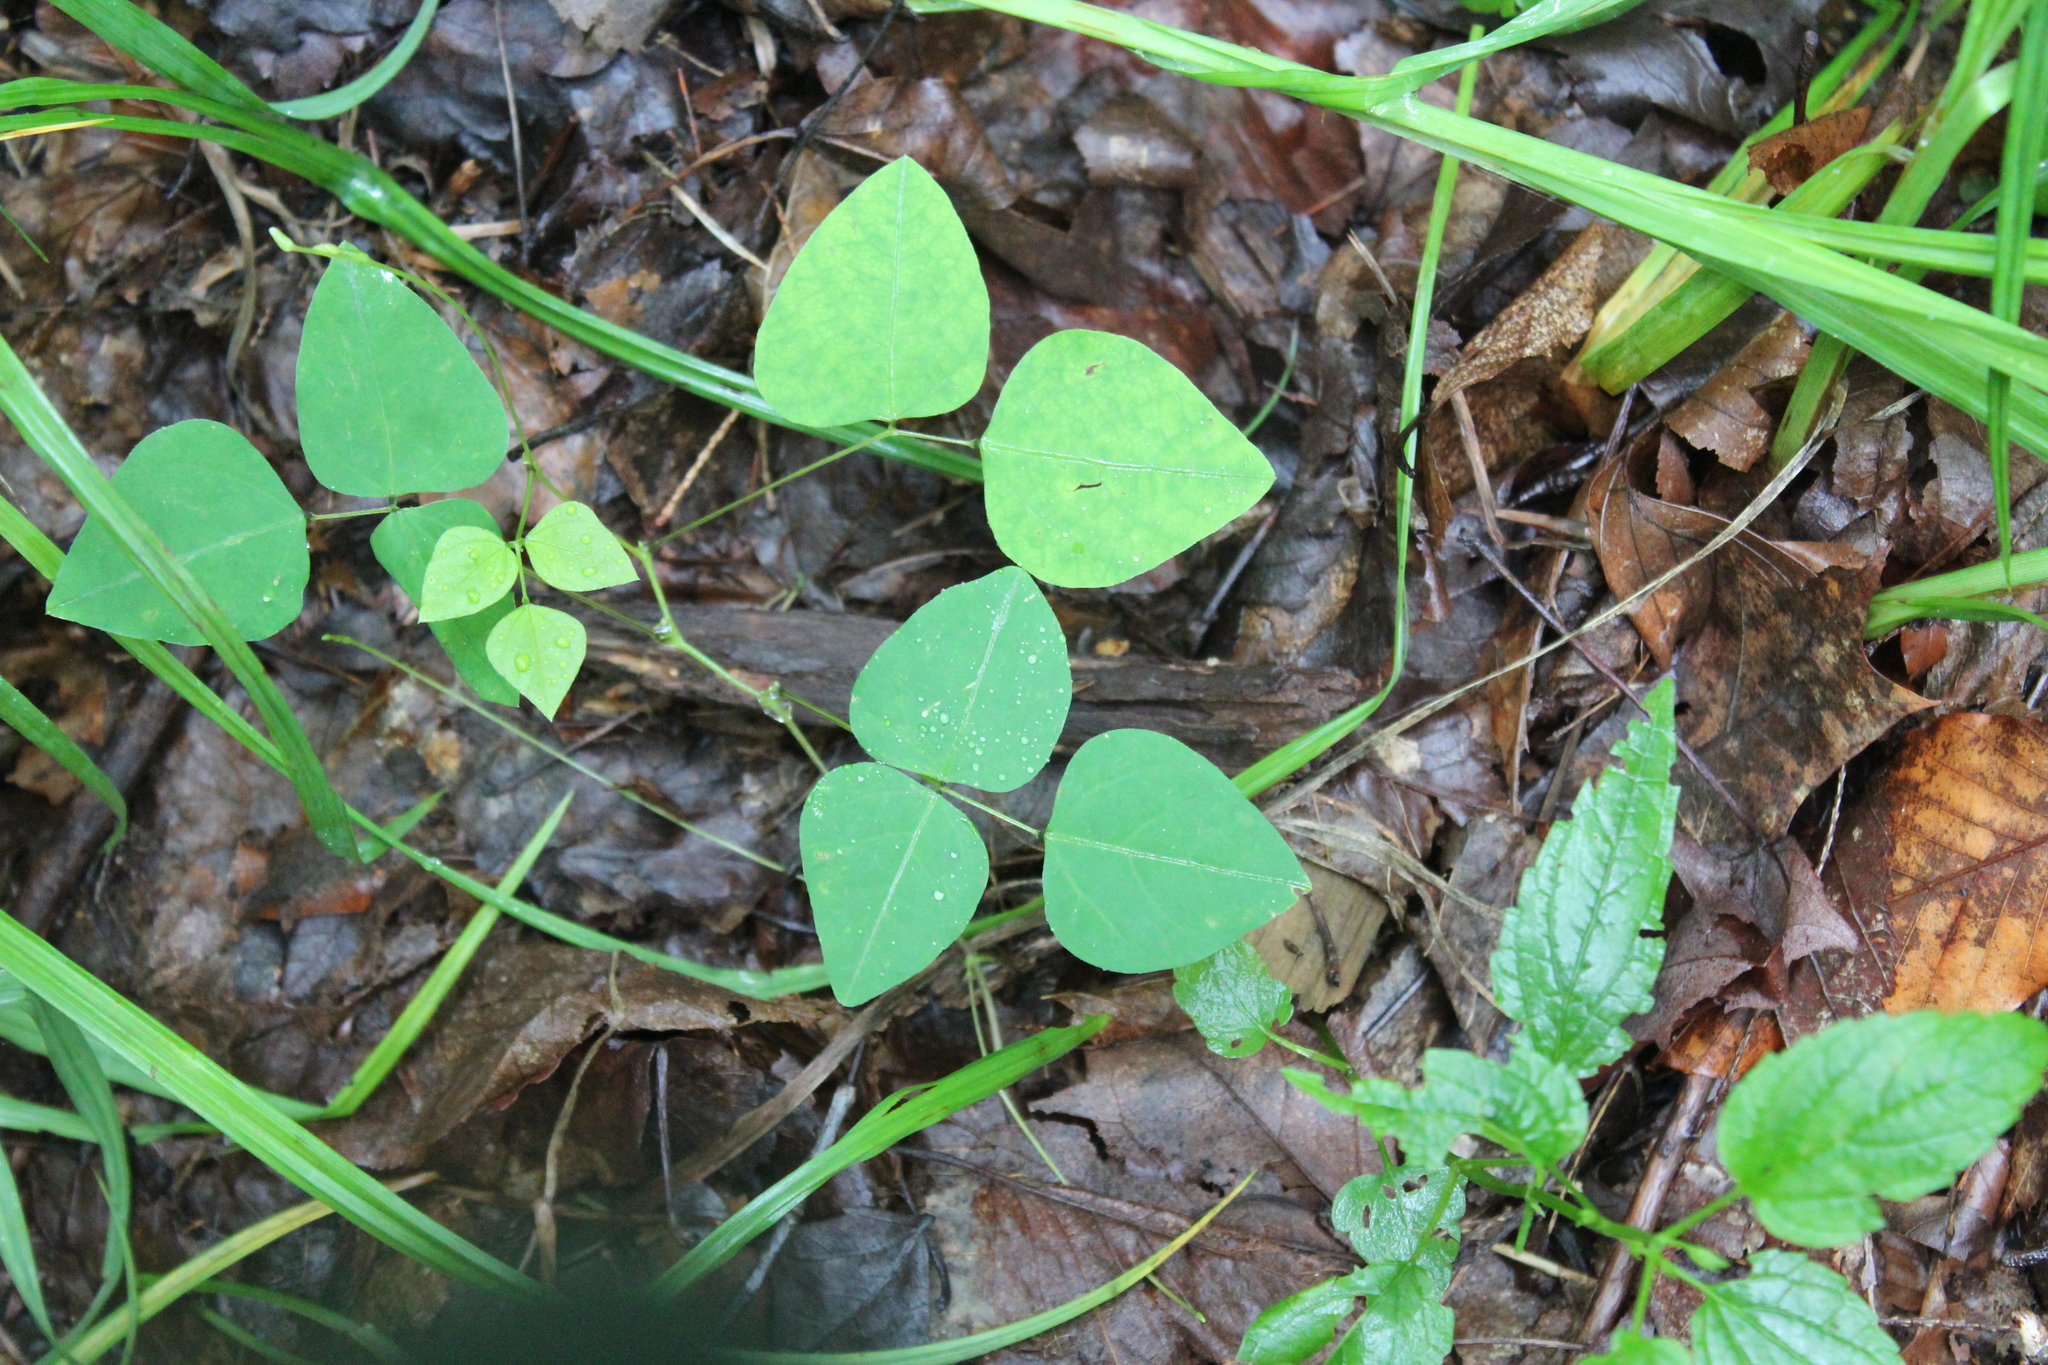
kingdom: Plantae
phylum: Tracheophyta
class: Magnoliopsida
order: Fabales
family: Fabaceae
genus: Amphicarpaea
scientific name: Amphicarpaea bracteata
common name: American hog peanut
